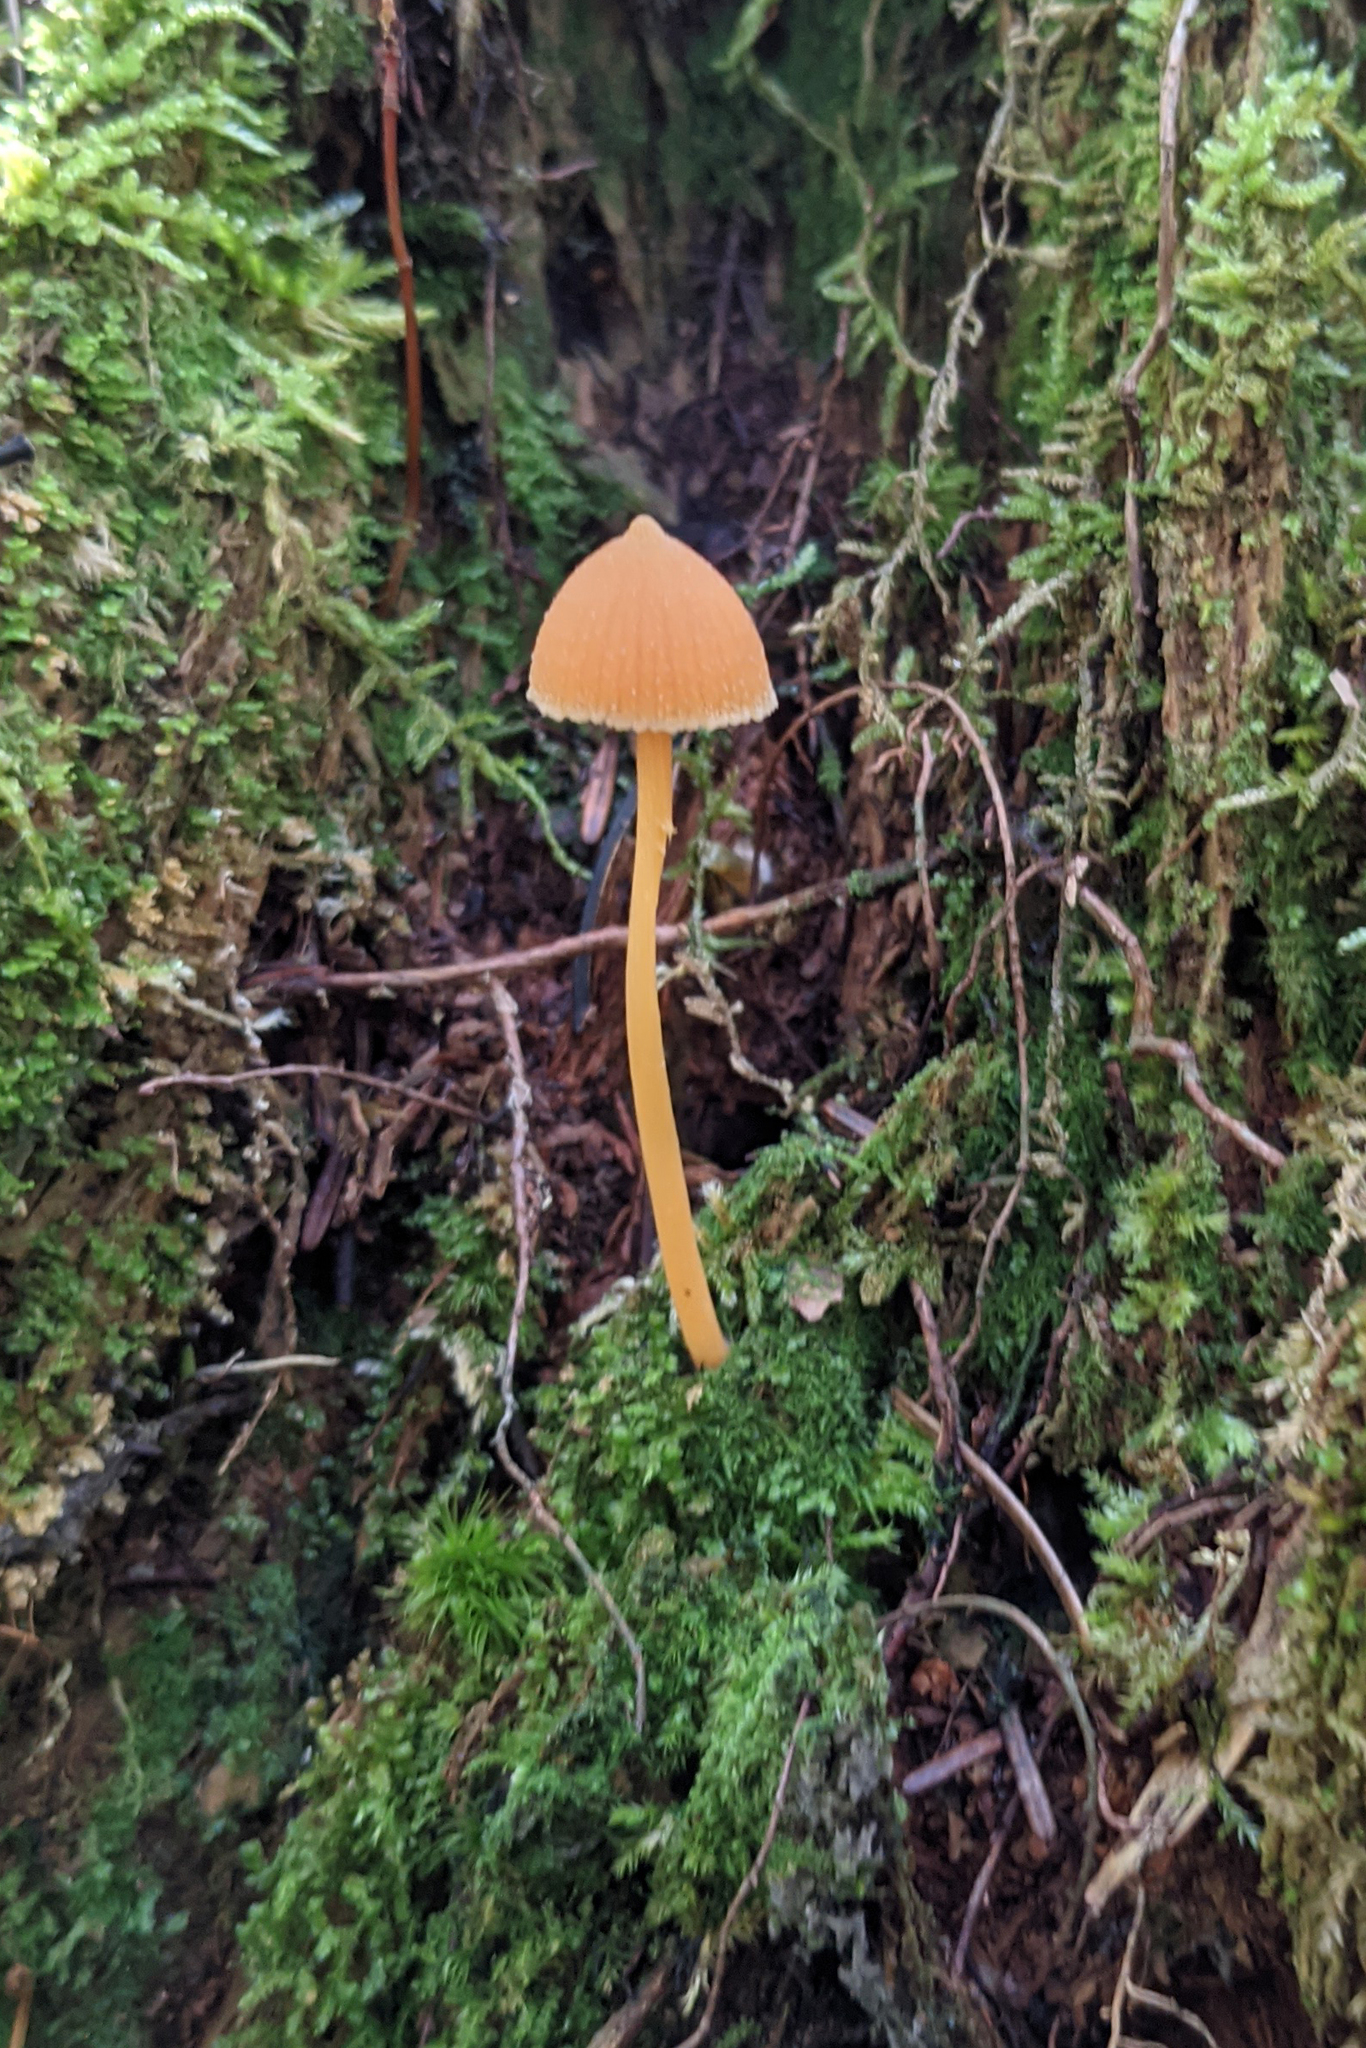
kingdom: Fungi
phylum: Basidiomycota
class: Agaricomycetes
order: Agaricales
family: Entolomataceae
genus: Entoloma
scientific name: Entoloma quadratum
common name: Salmon pinkgill
